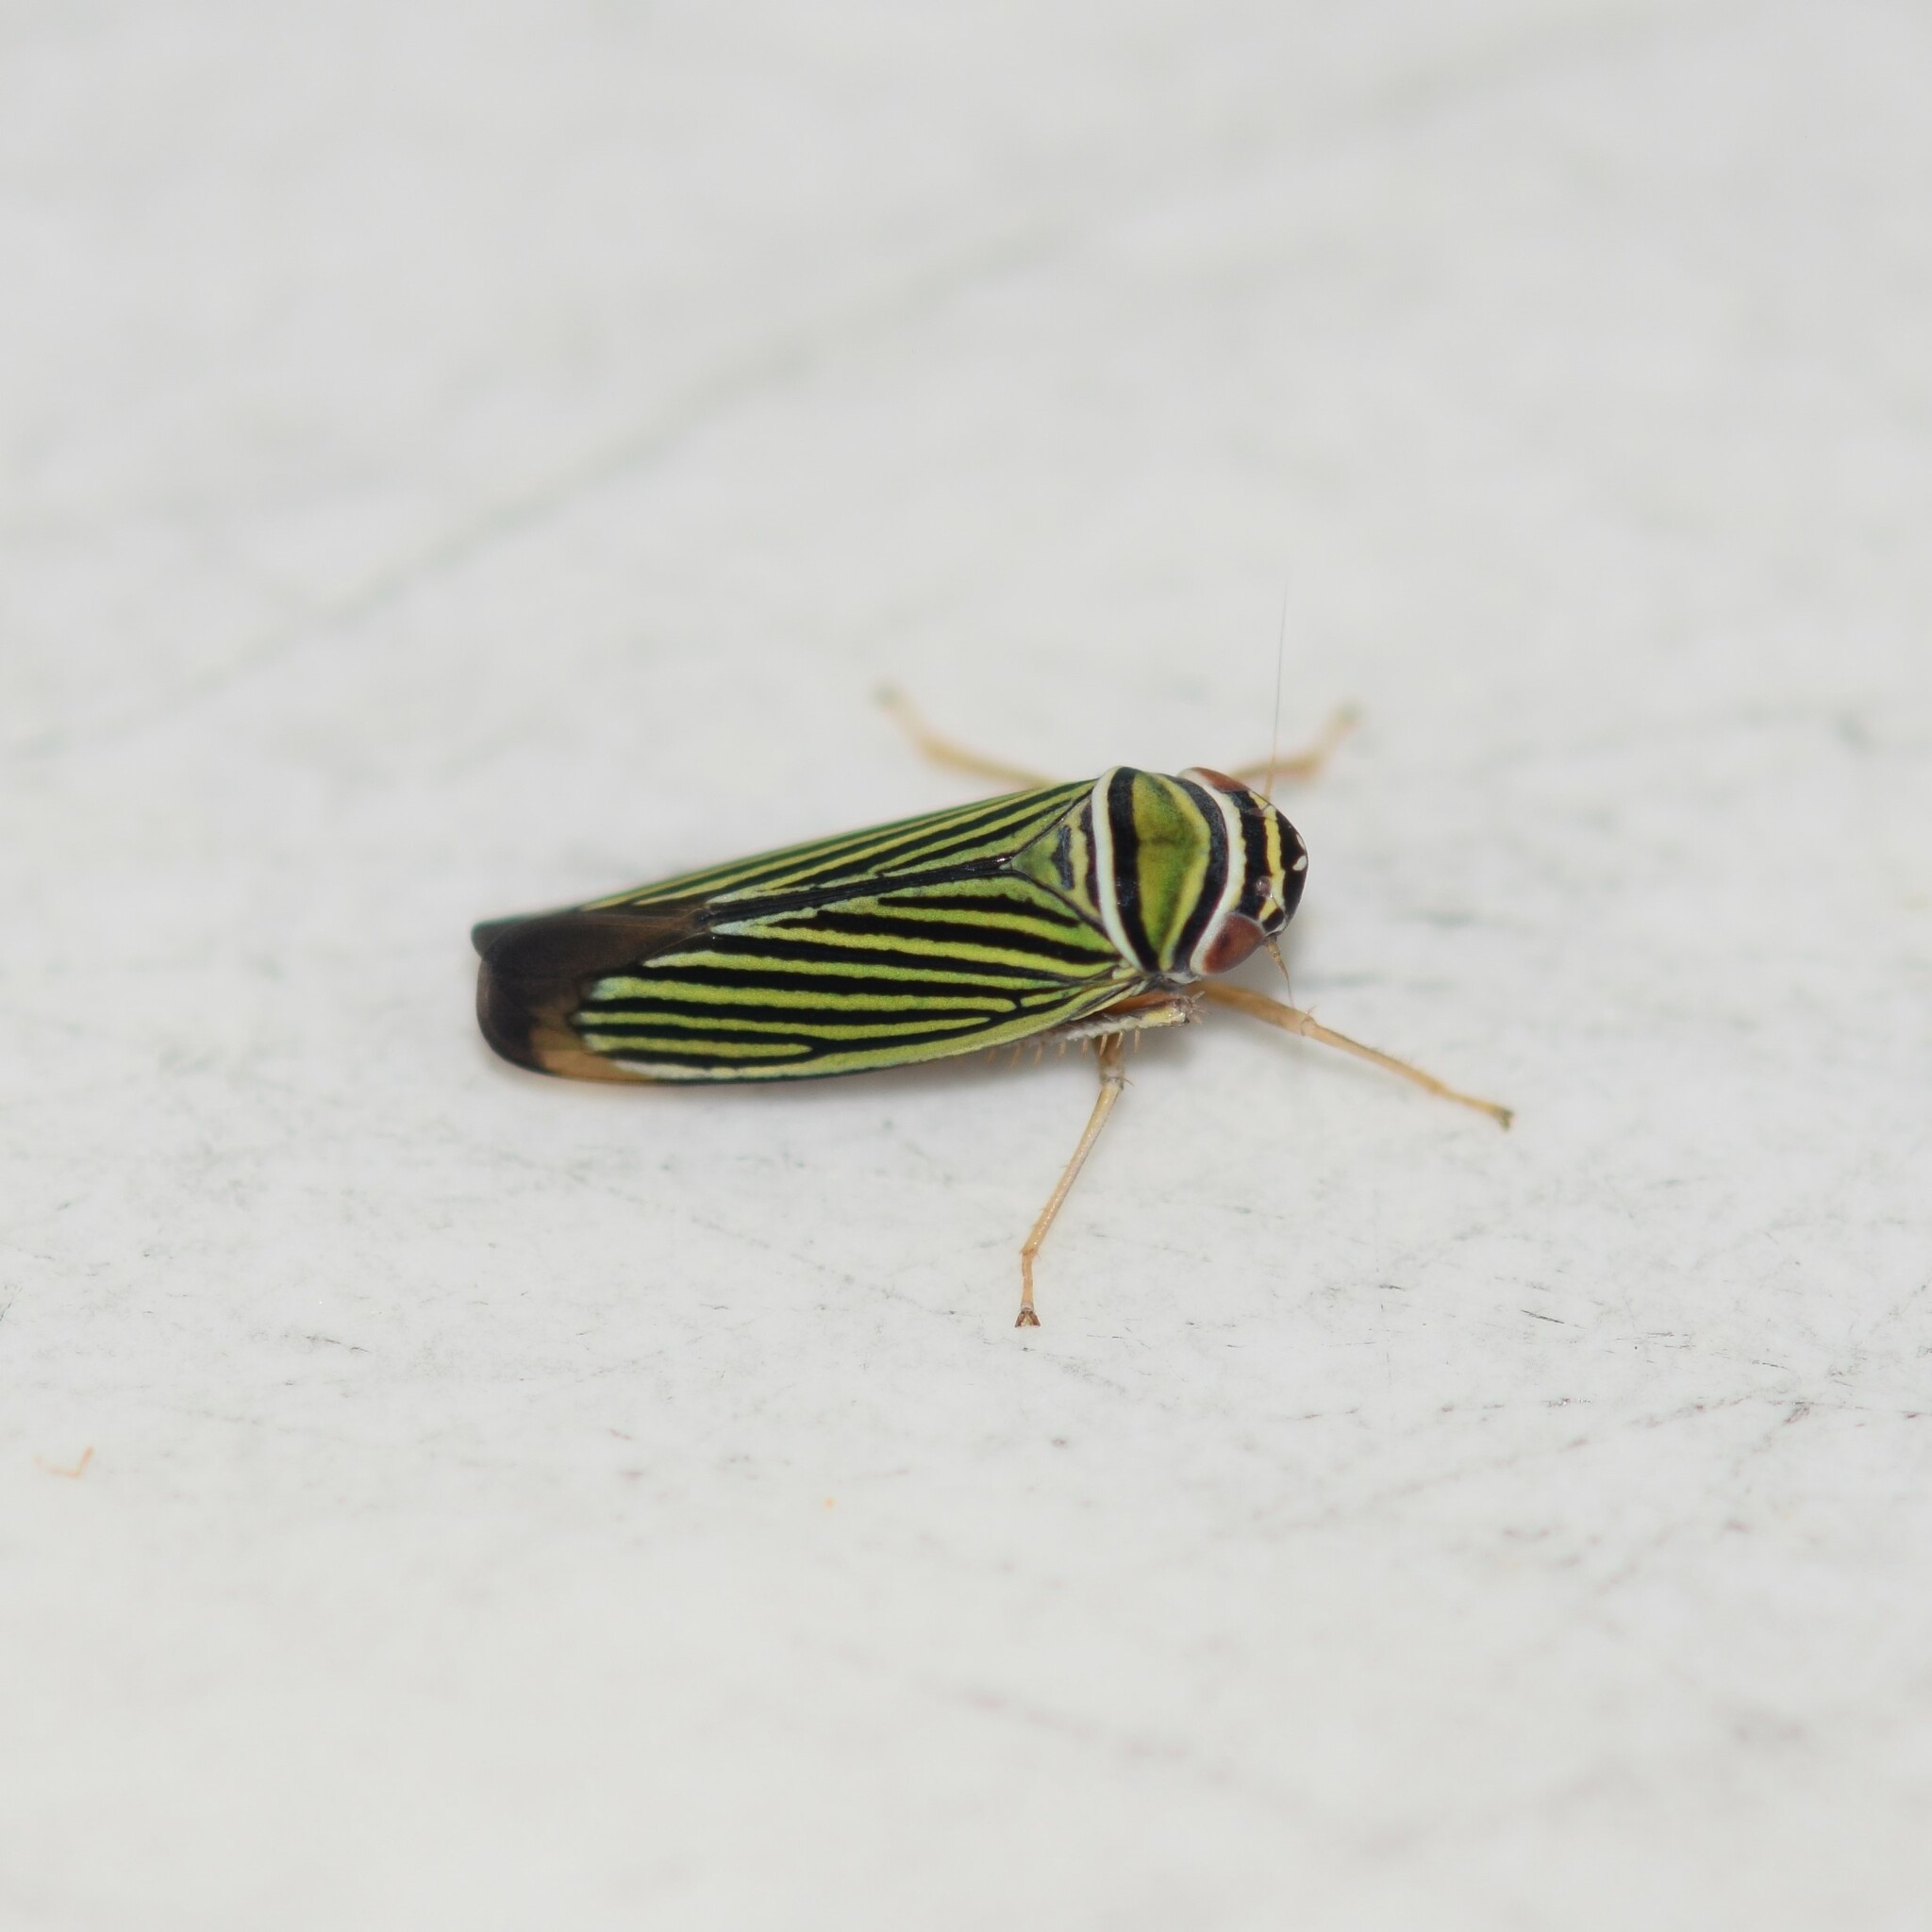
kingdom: Animalia
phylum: Arthropoda
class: Insecta
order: Hemiptera
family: Cicadellidae
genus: Tylozygus
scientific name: Tylozygus bifidus
